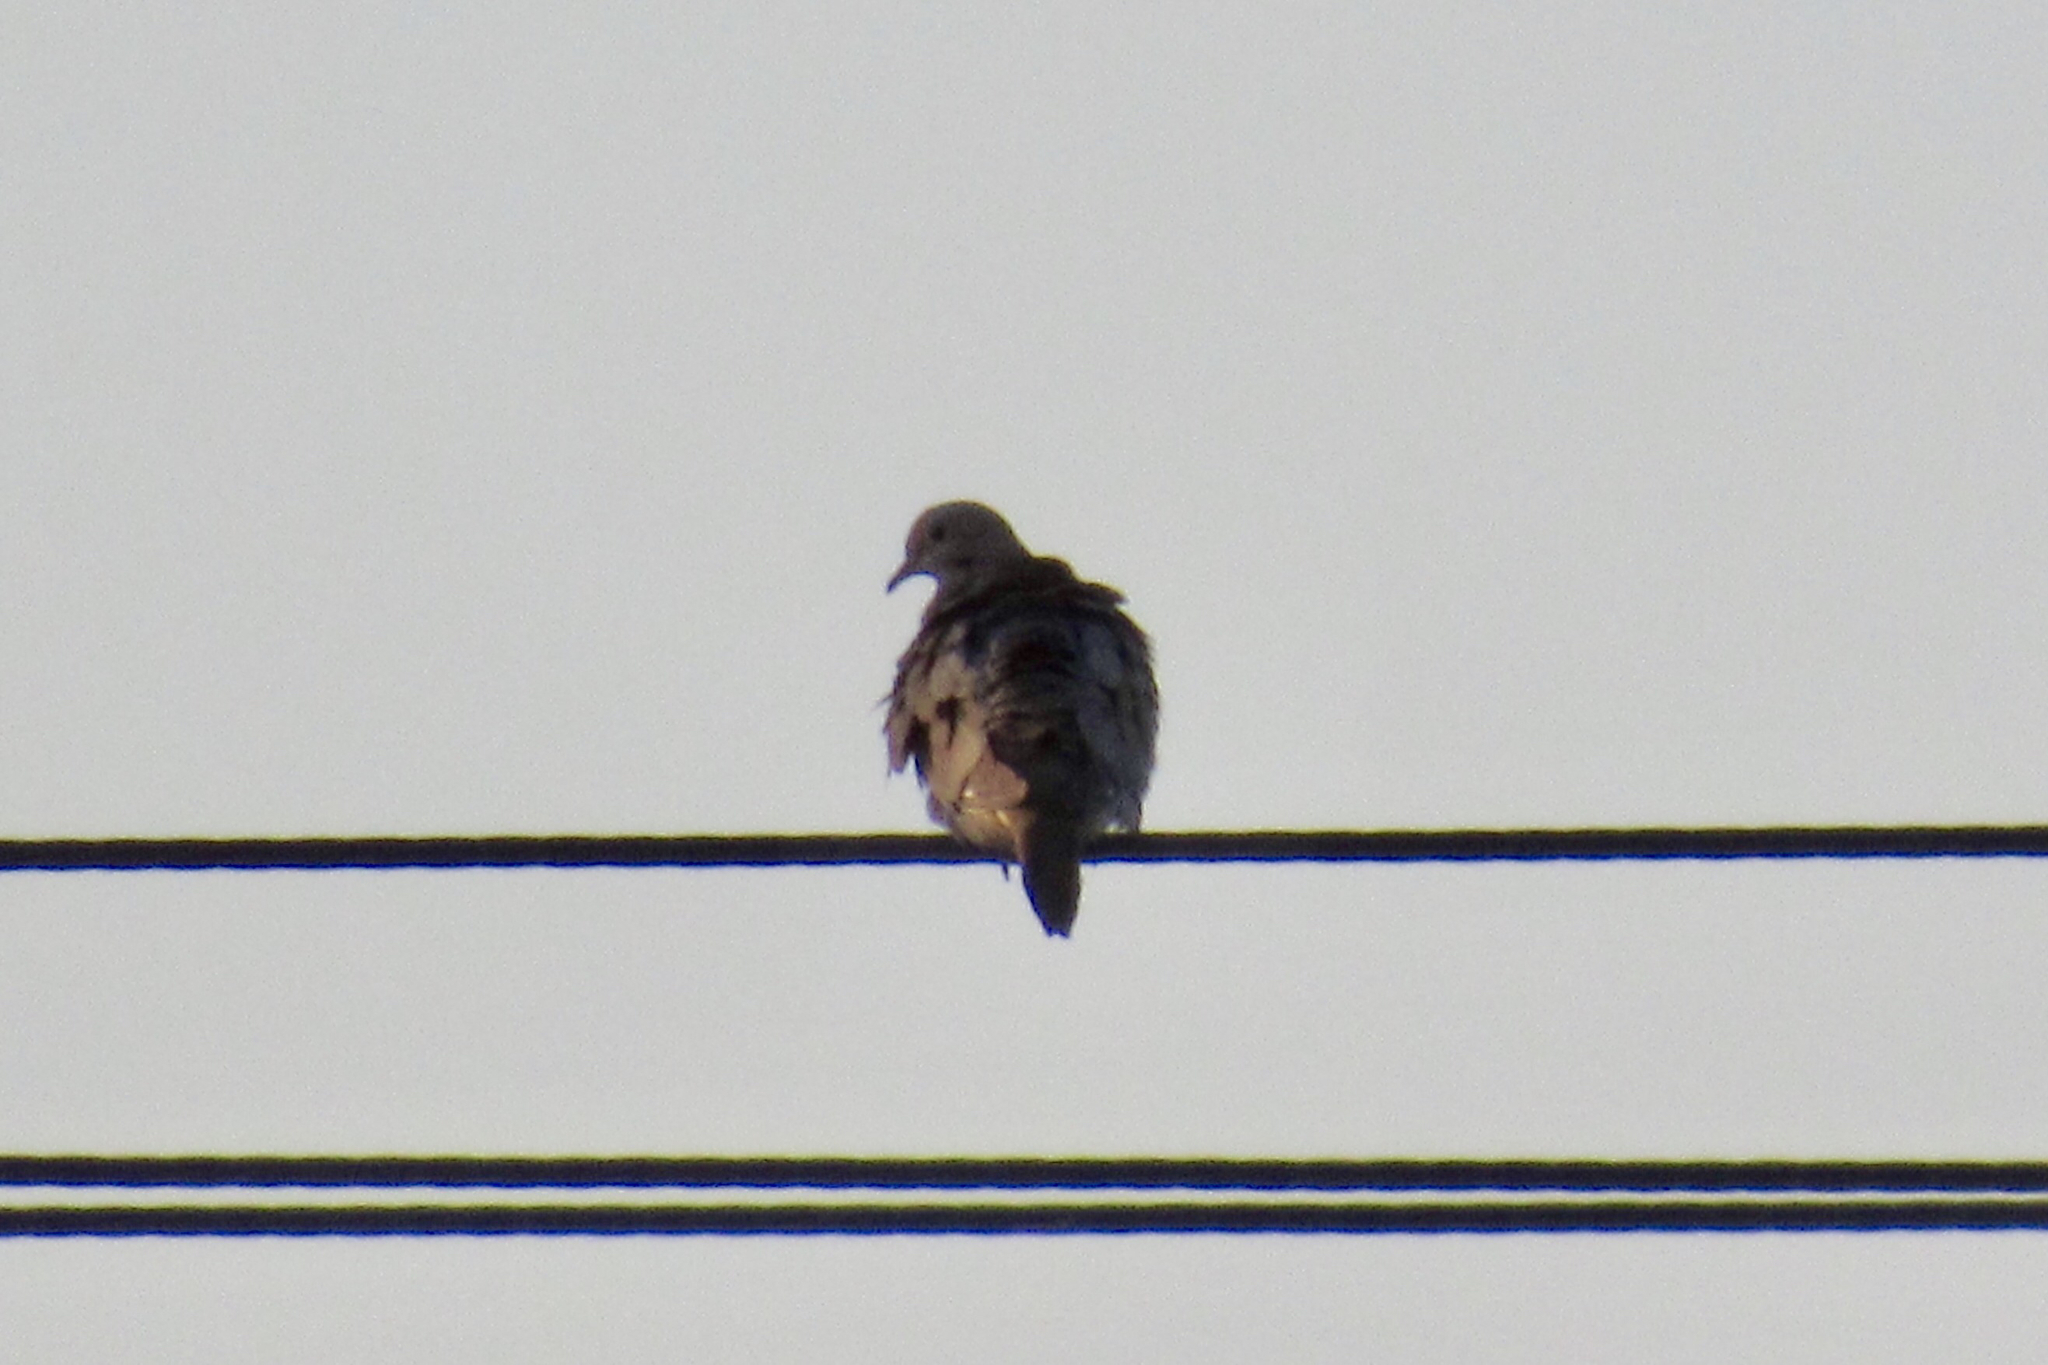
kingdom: Animalia
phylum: Chordata
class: Aves
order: Columbiformes
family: Columbidae
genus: Zenaida
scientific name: Zenaida macroura
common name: Mourning dove
